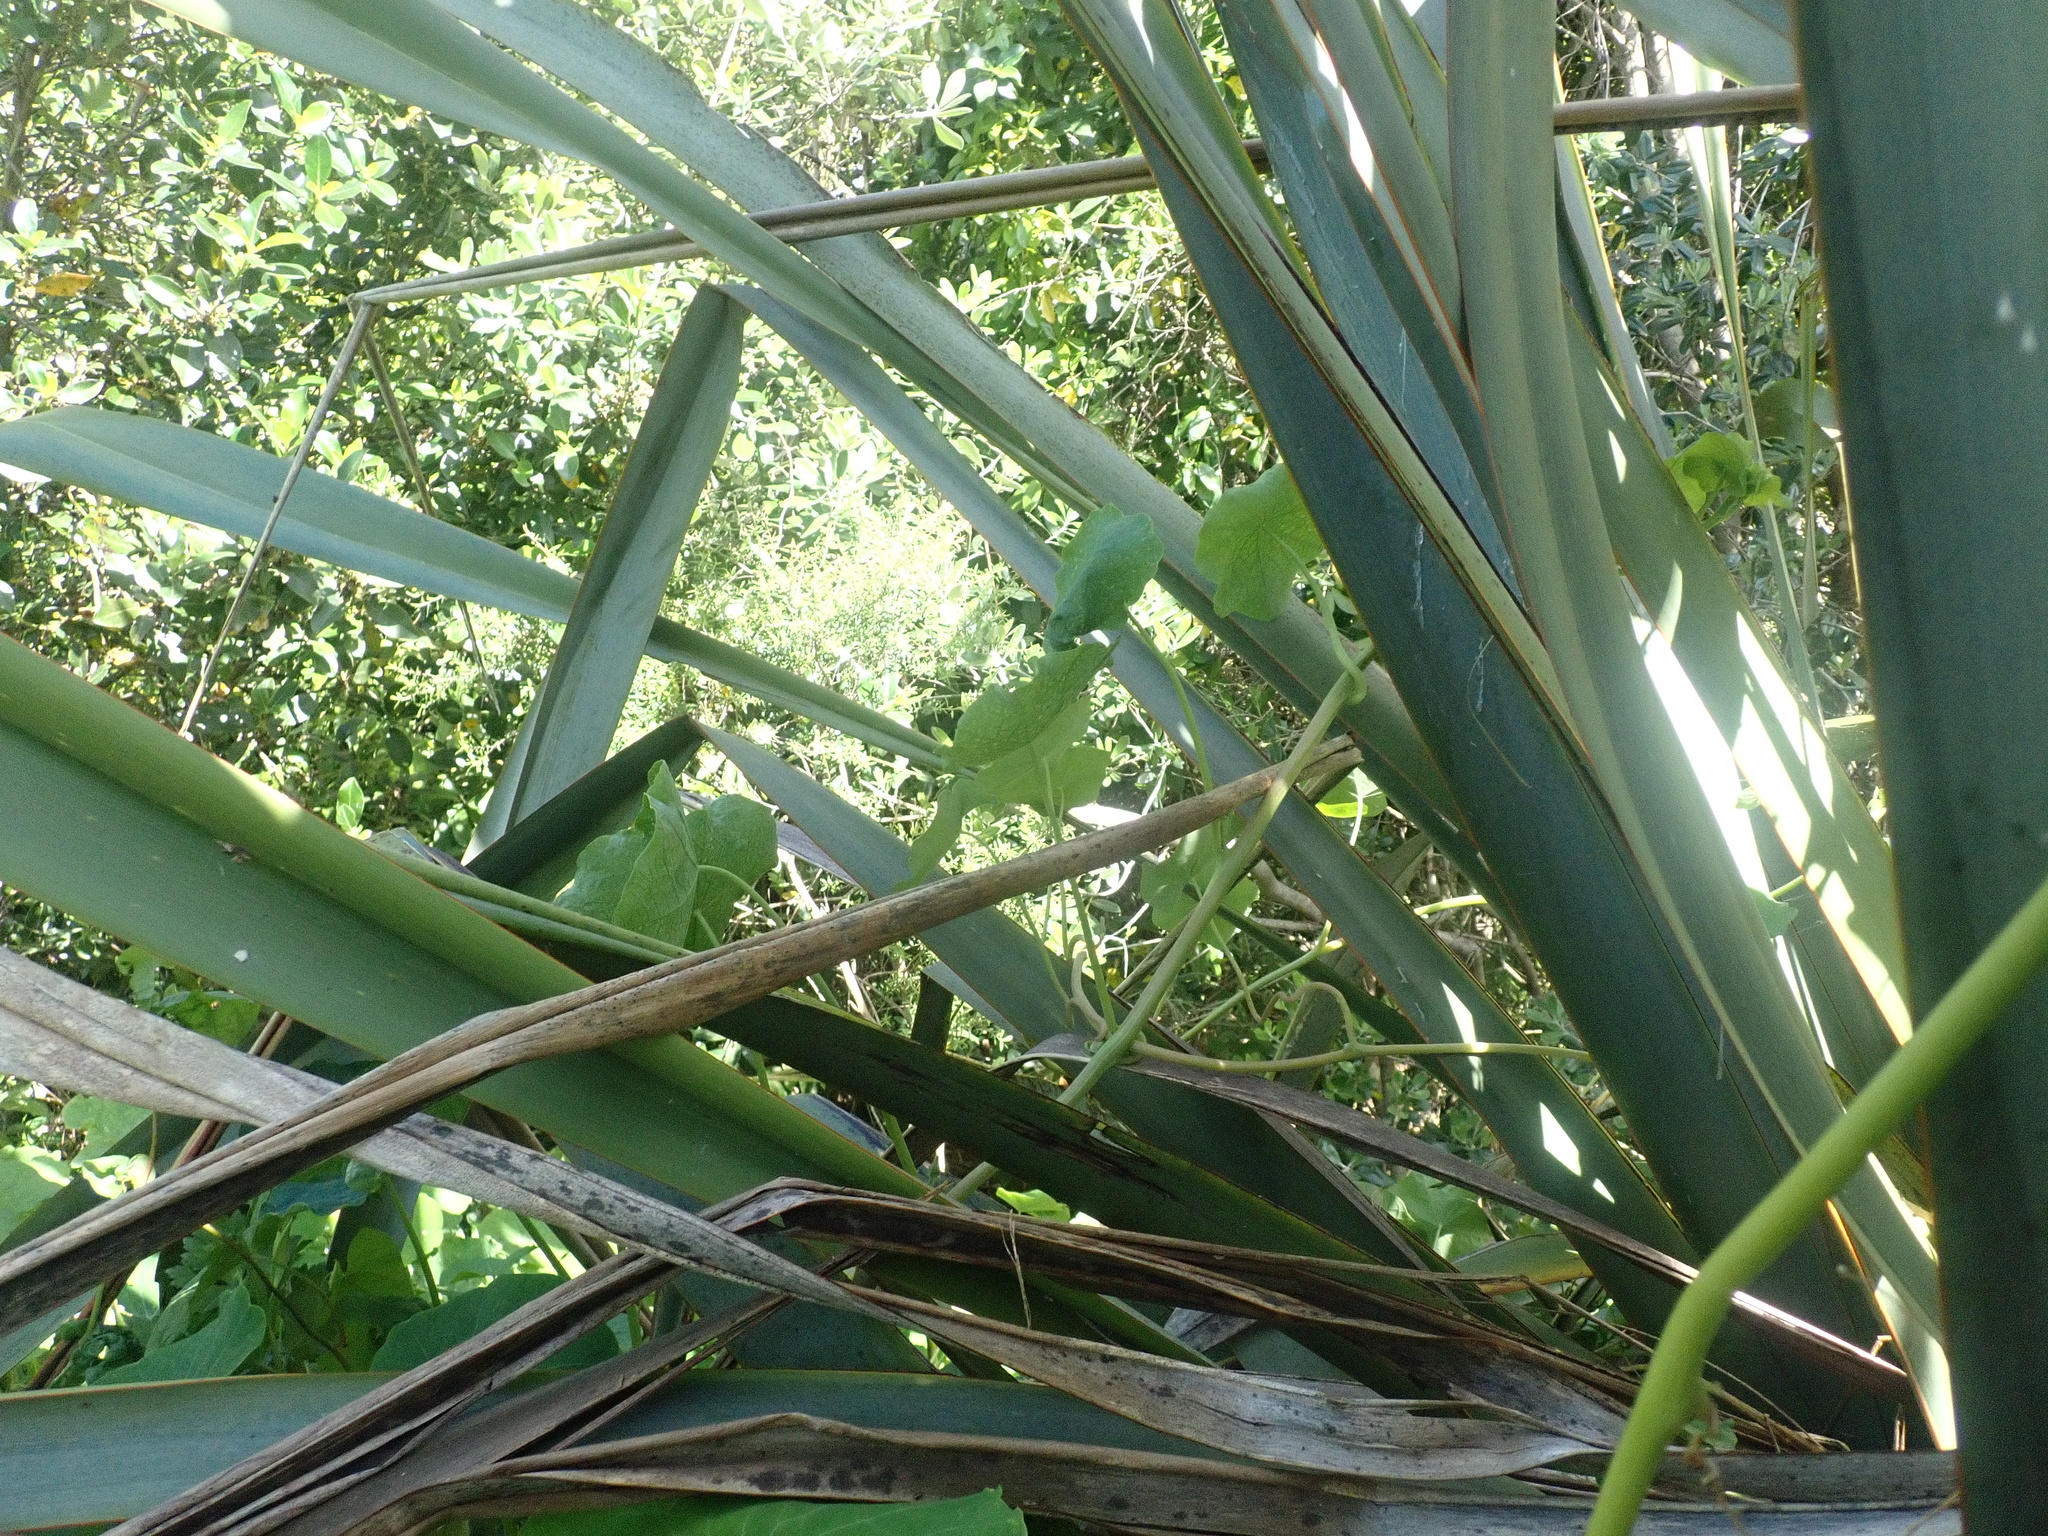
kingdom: Plantae
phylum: Tracheophyta
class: Magnoliopsida
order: Brassicales
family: Tropaeolaceae
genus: Tropaeolum
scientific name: Tropaeolum majus
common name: Nasturtium
